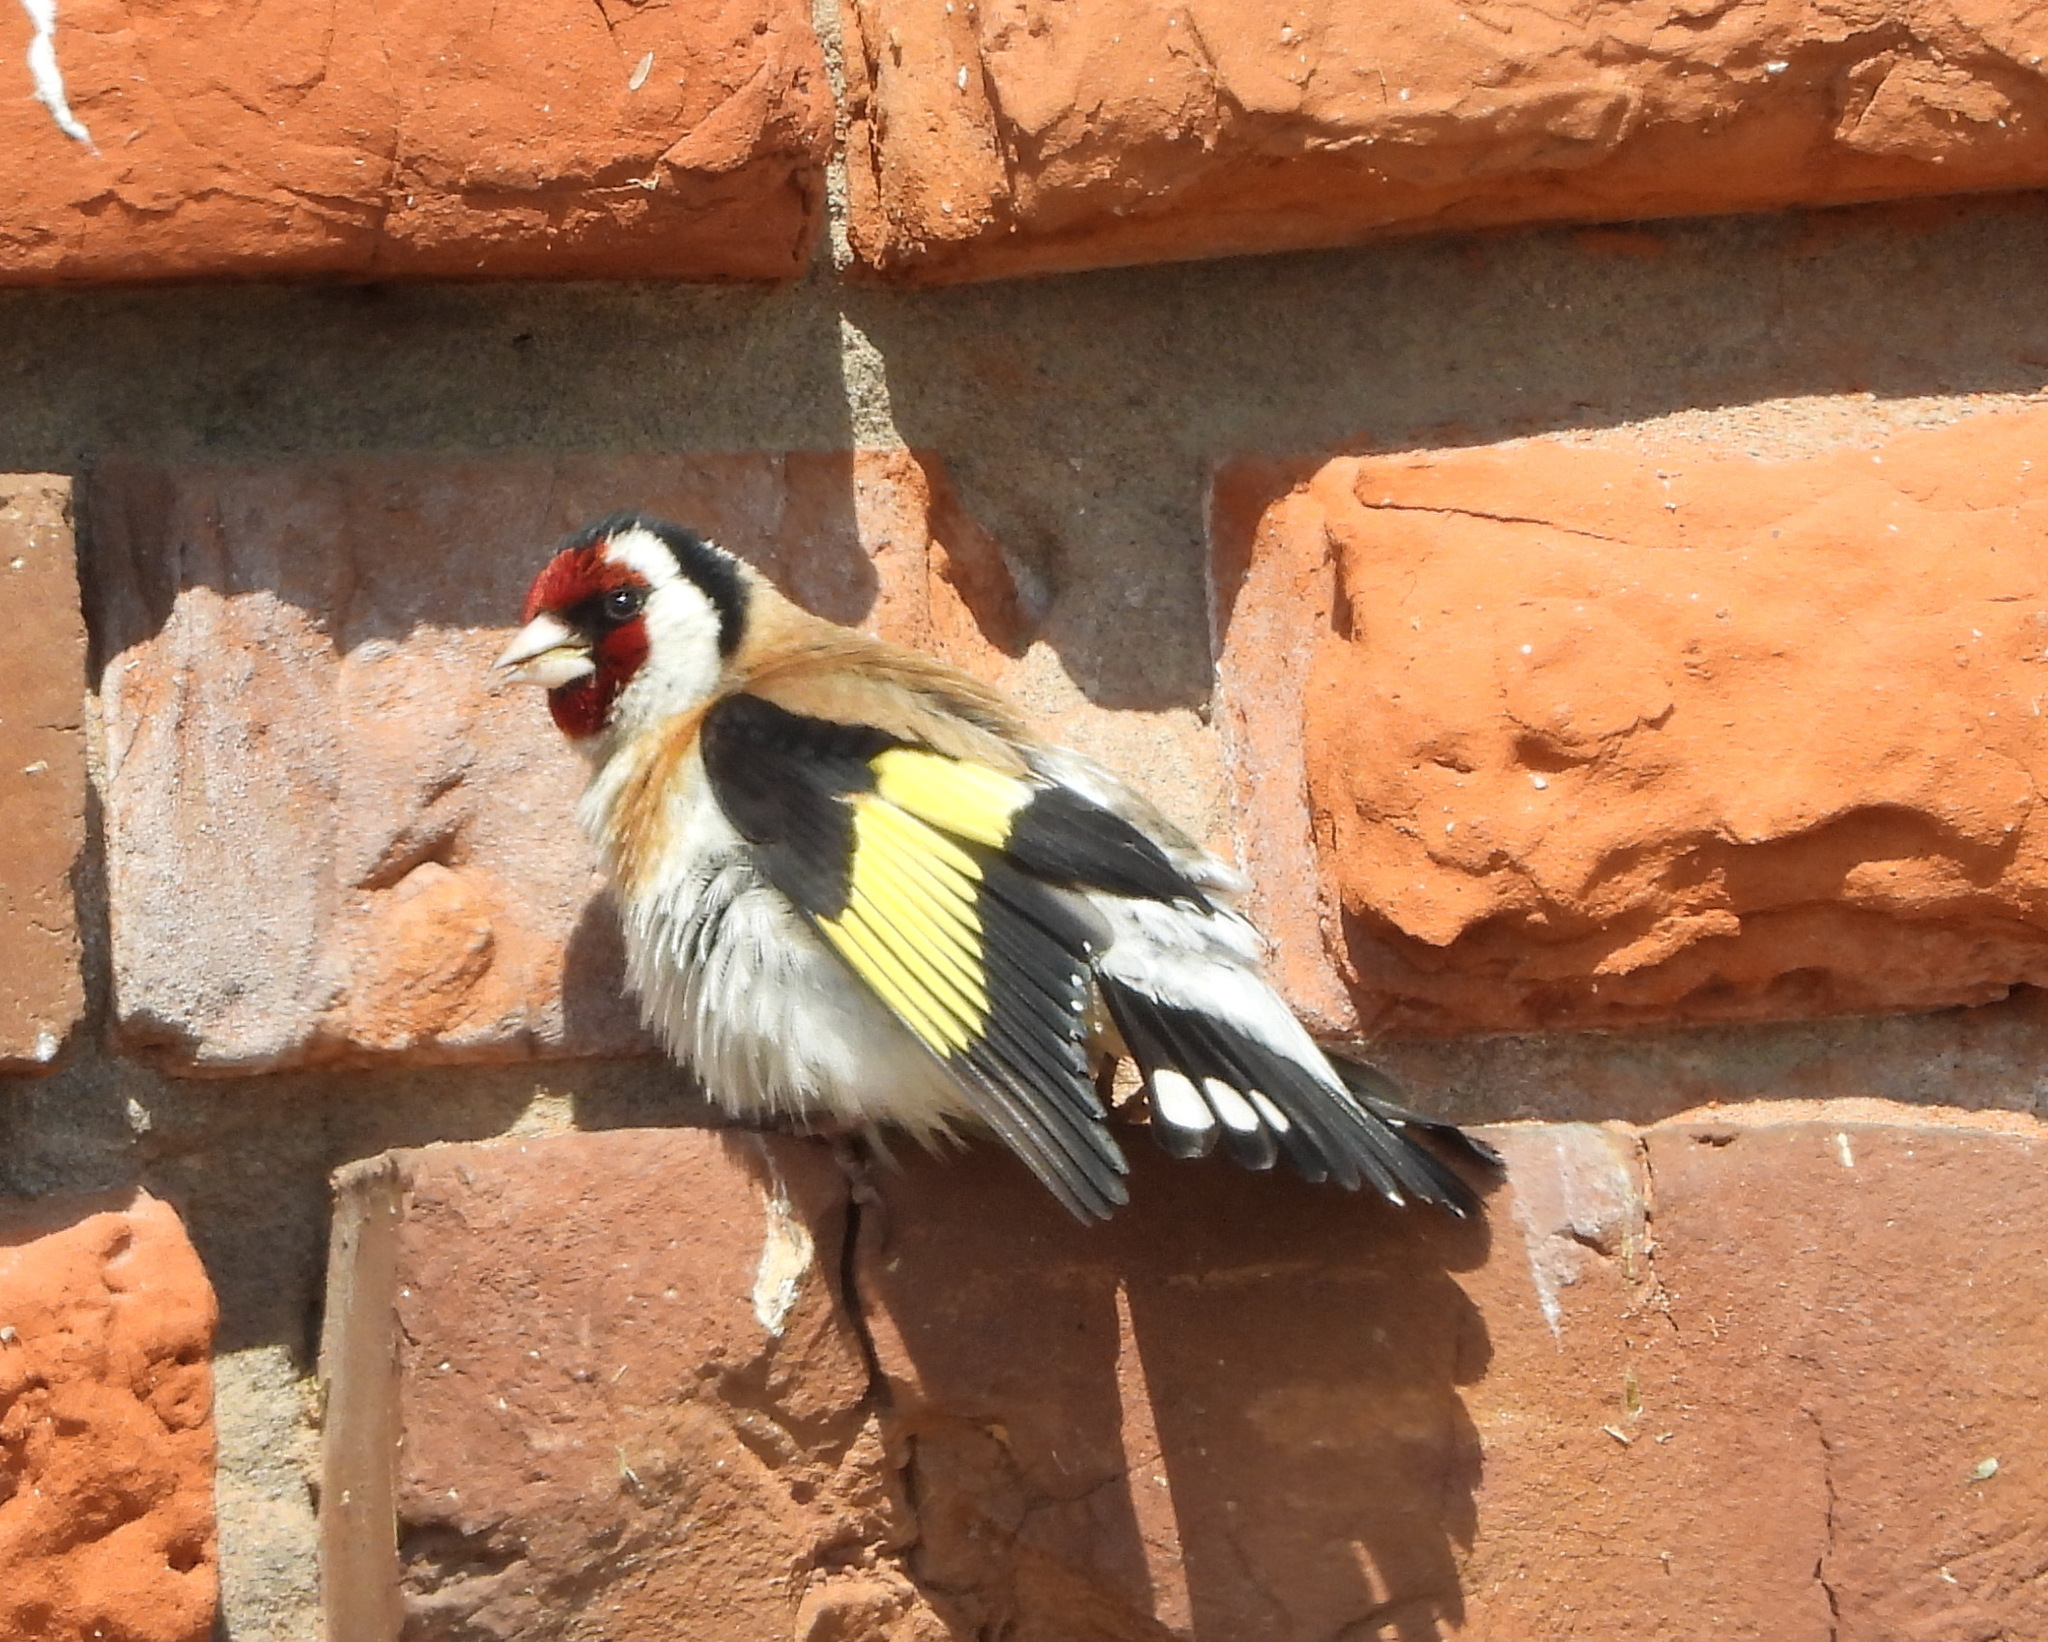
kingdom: Animalia
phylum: Chordata
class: Aves
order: Passeriformes
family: Fringillidae
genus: Carduelis
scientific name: Carduelis carduelis
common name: European goldfinch
